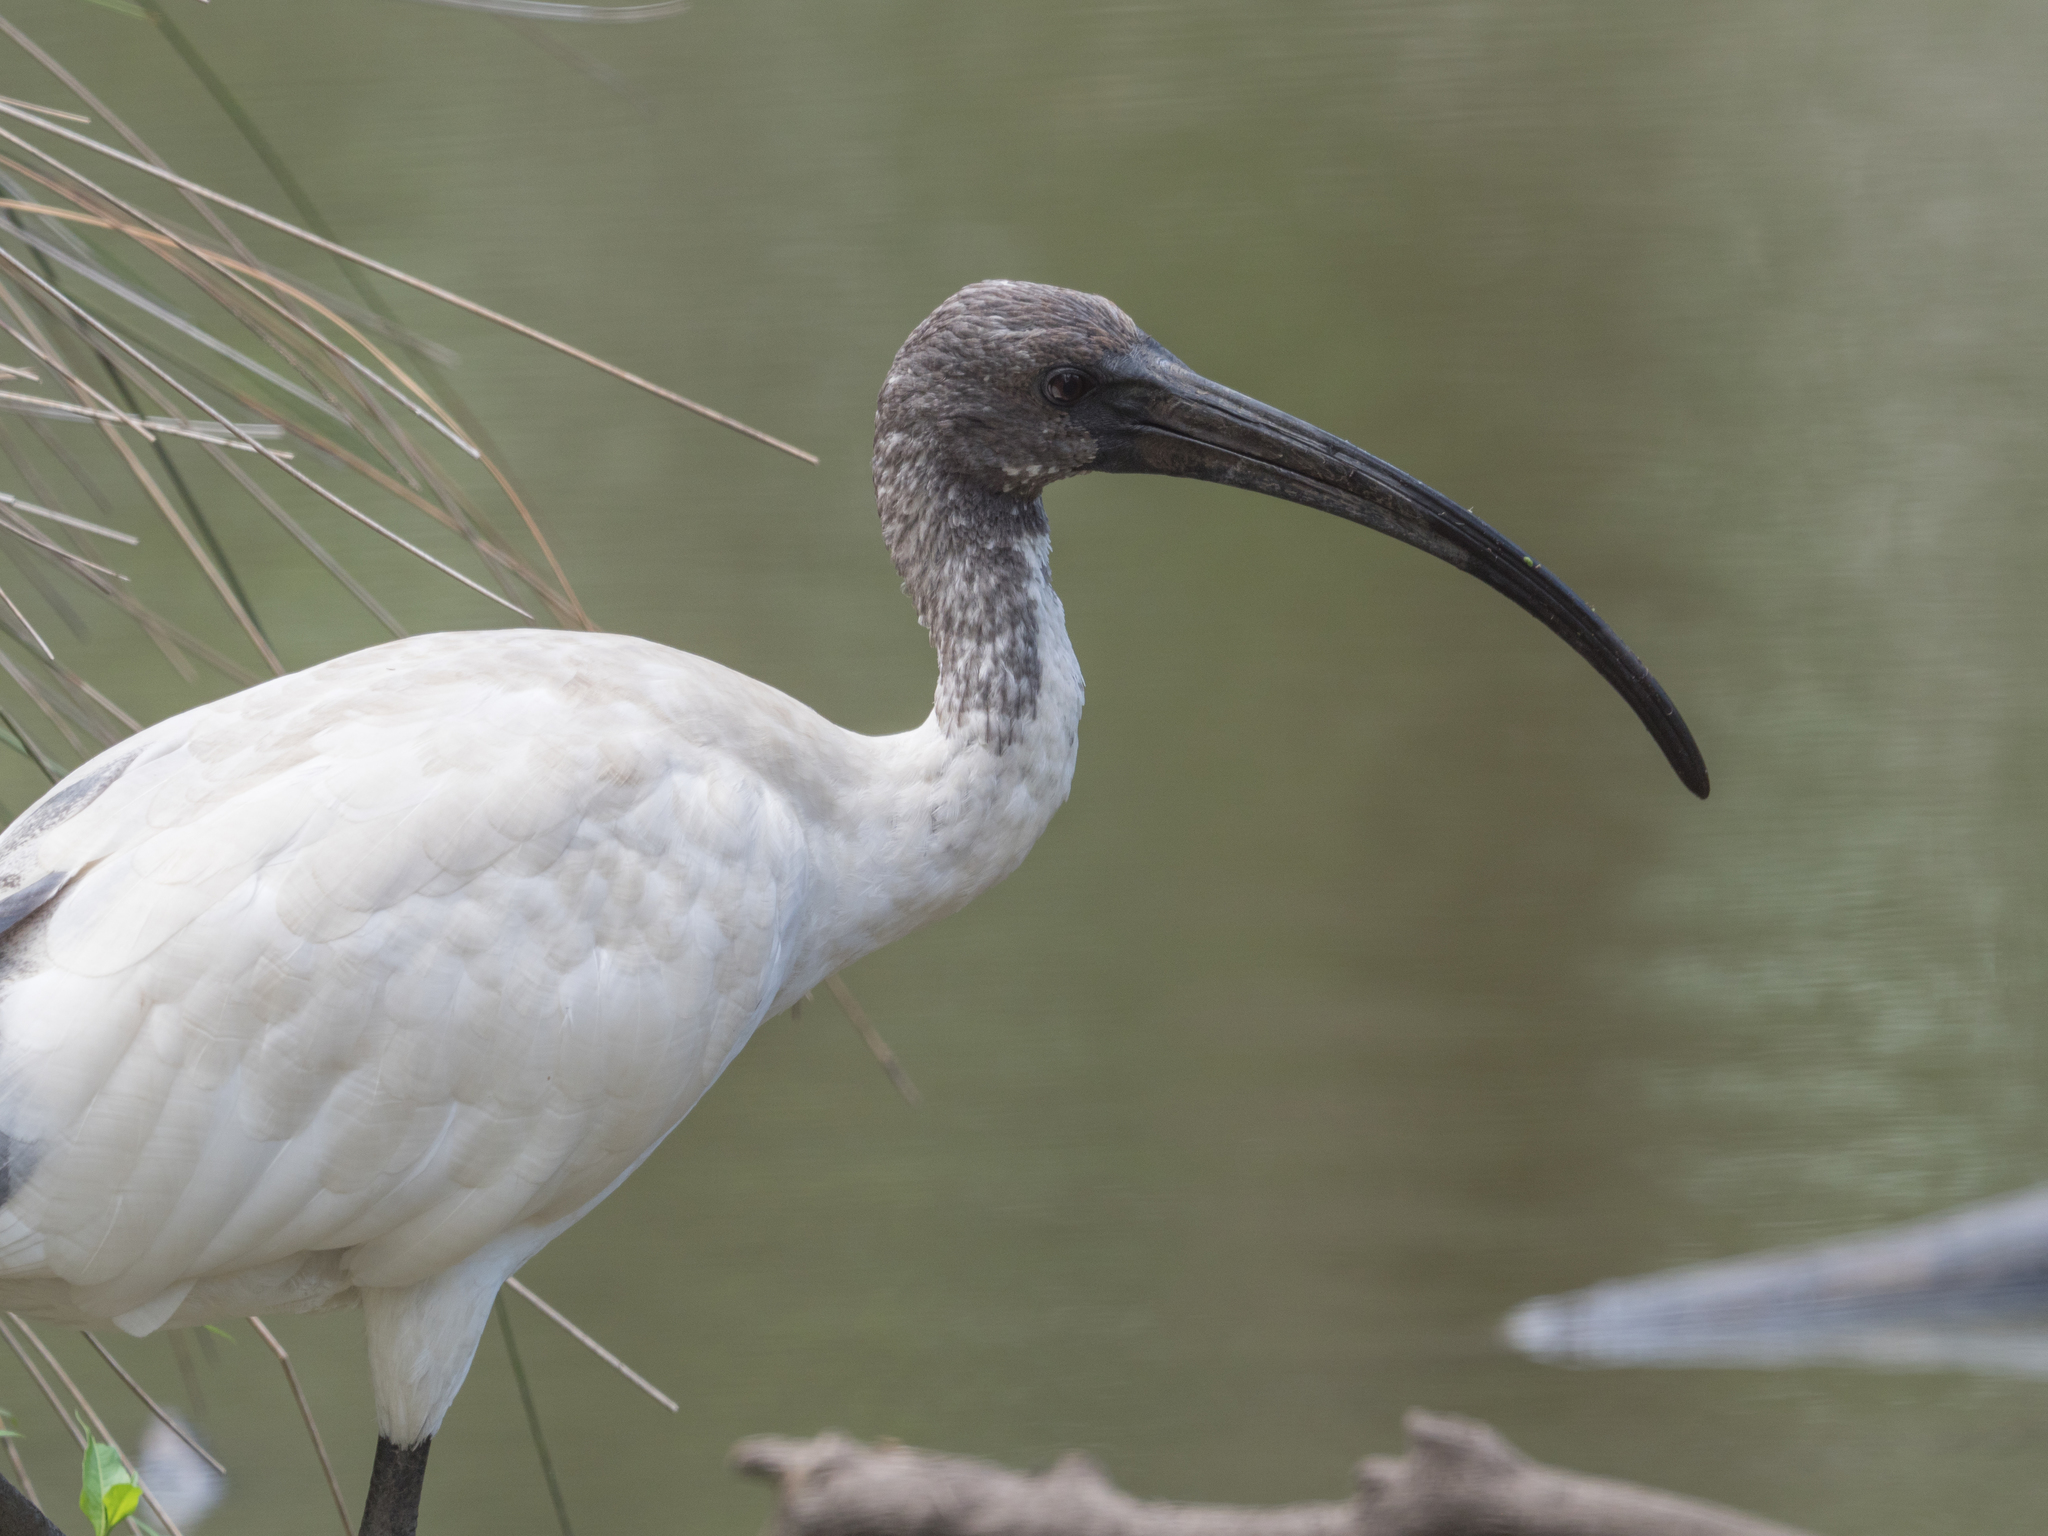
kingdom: Animalia
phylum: Chordata
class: Aves
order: Pelecaniformes
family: Threskiornithidae
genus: Threskiornis
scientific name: Threskiornis molucca
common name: Australian white ibis
